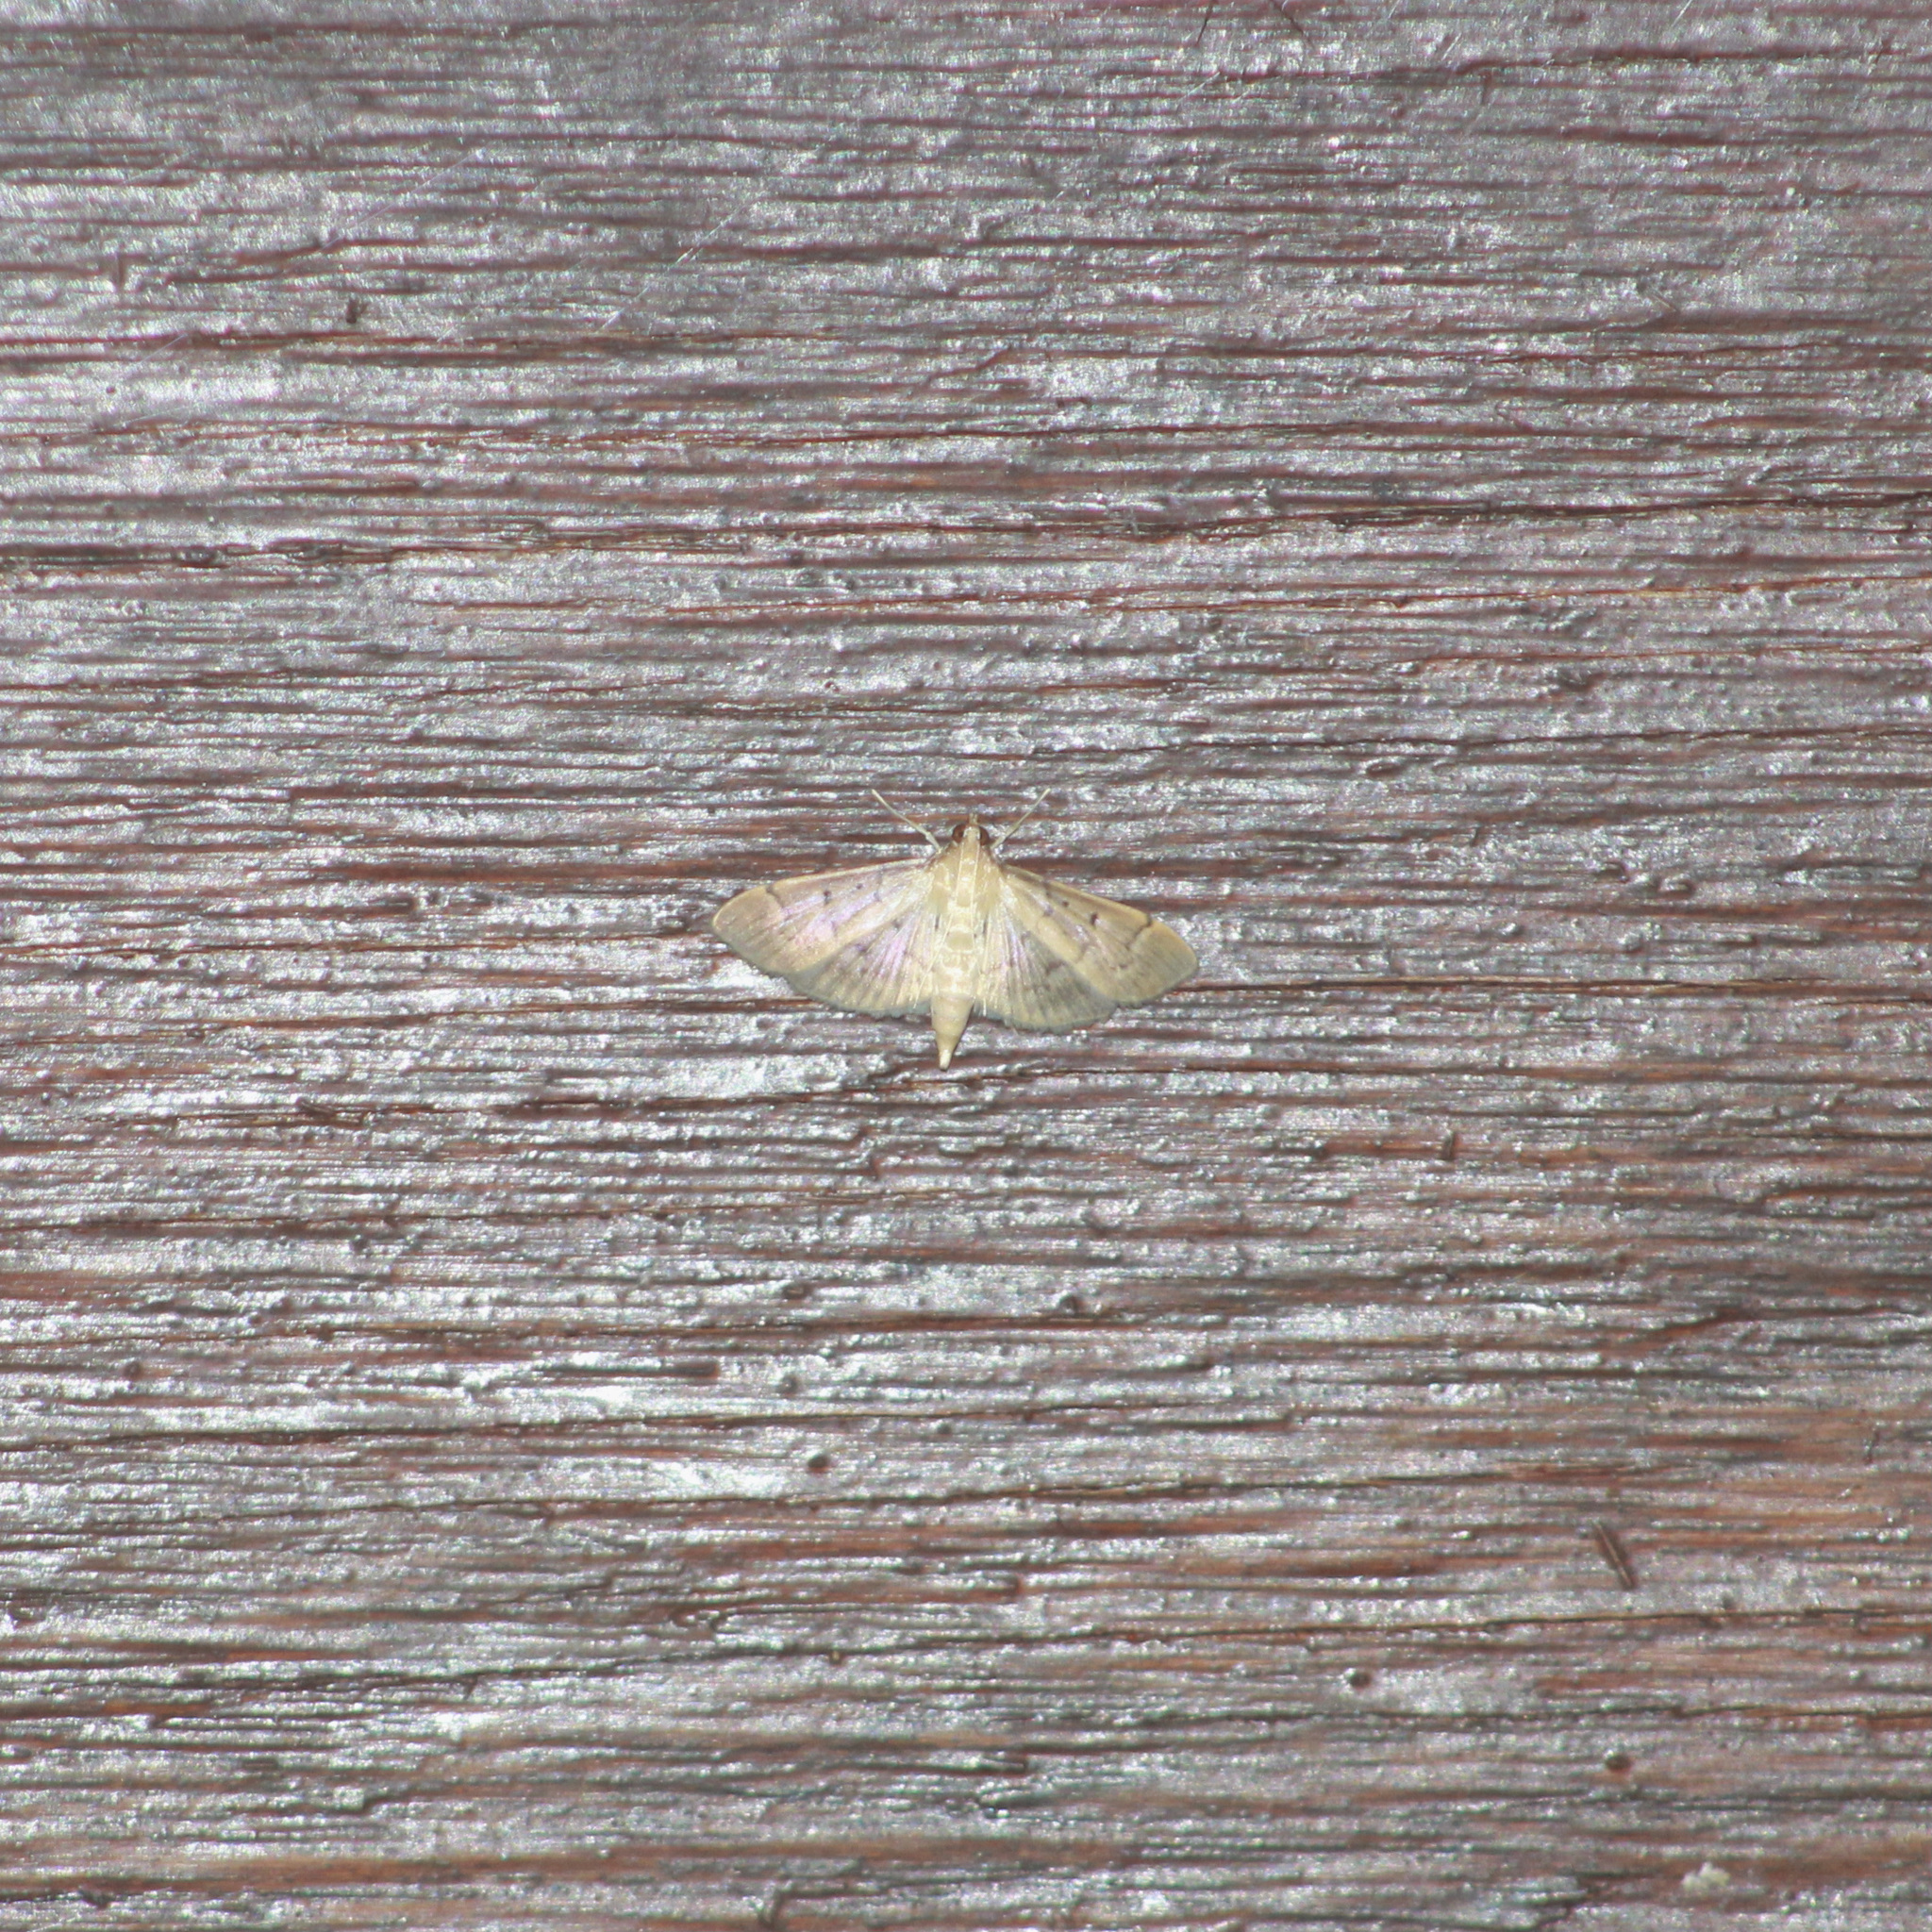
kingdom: Animalia
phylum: Arthropoda
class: Insecta
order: Lepidoptera
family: Crambidae
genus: Herpetogramma
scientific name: Herpetogramma bipunctalis
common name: Southern beet webworm
